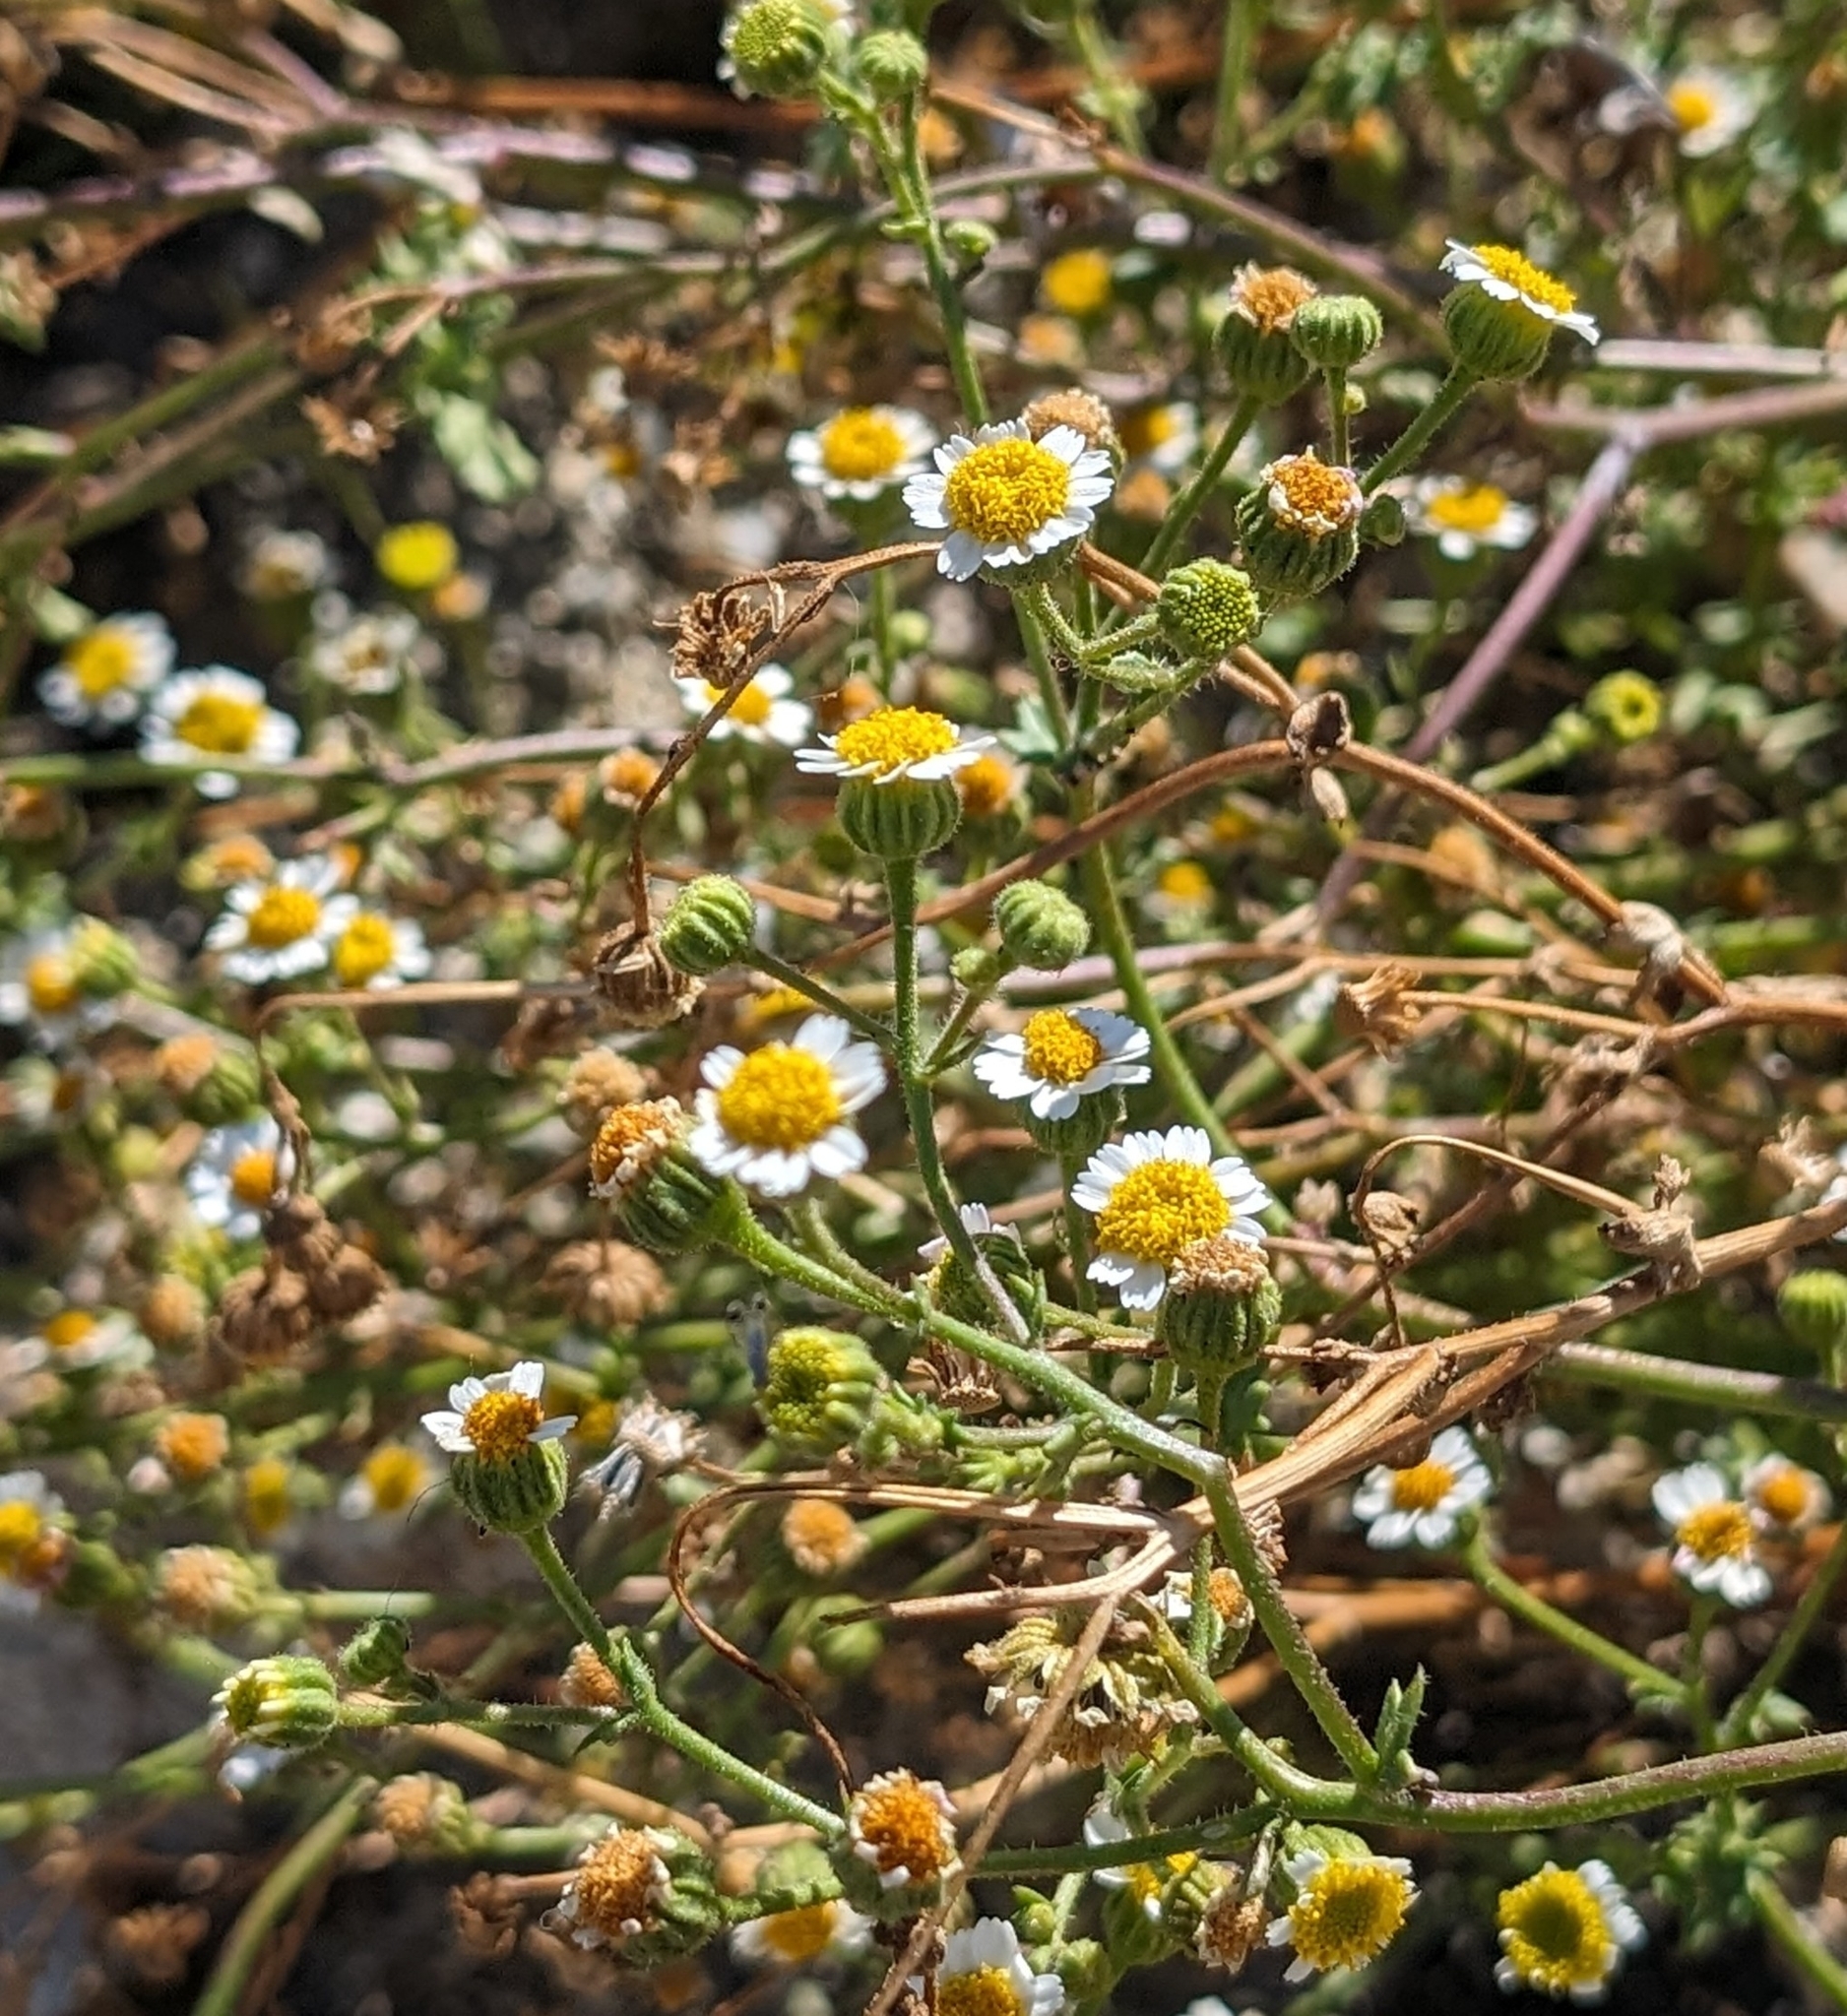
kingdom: Plantae
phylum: Tracheophyta
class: Magnoliopsida
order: Asterales
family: Asteraceae
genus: Laphamia
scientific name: Laphamia emoryi
